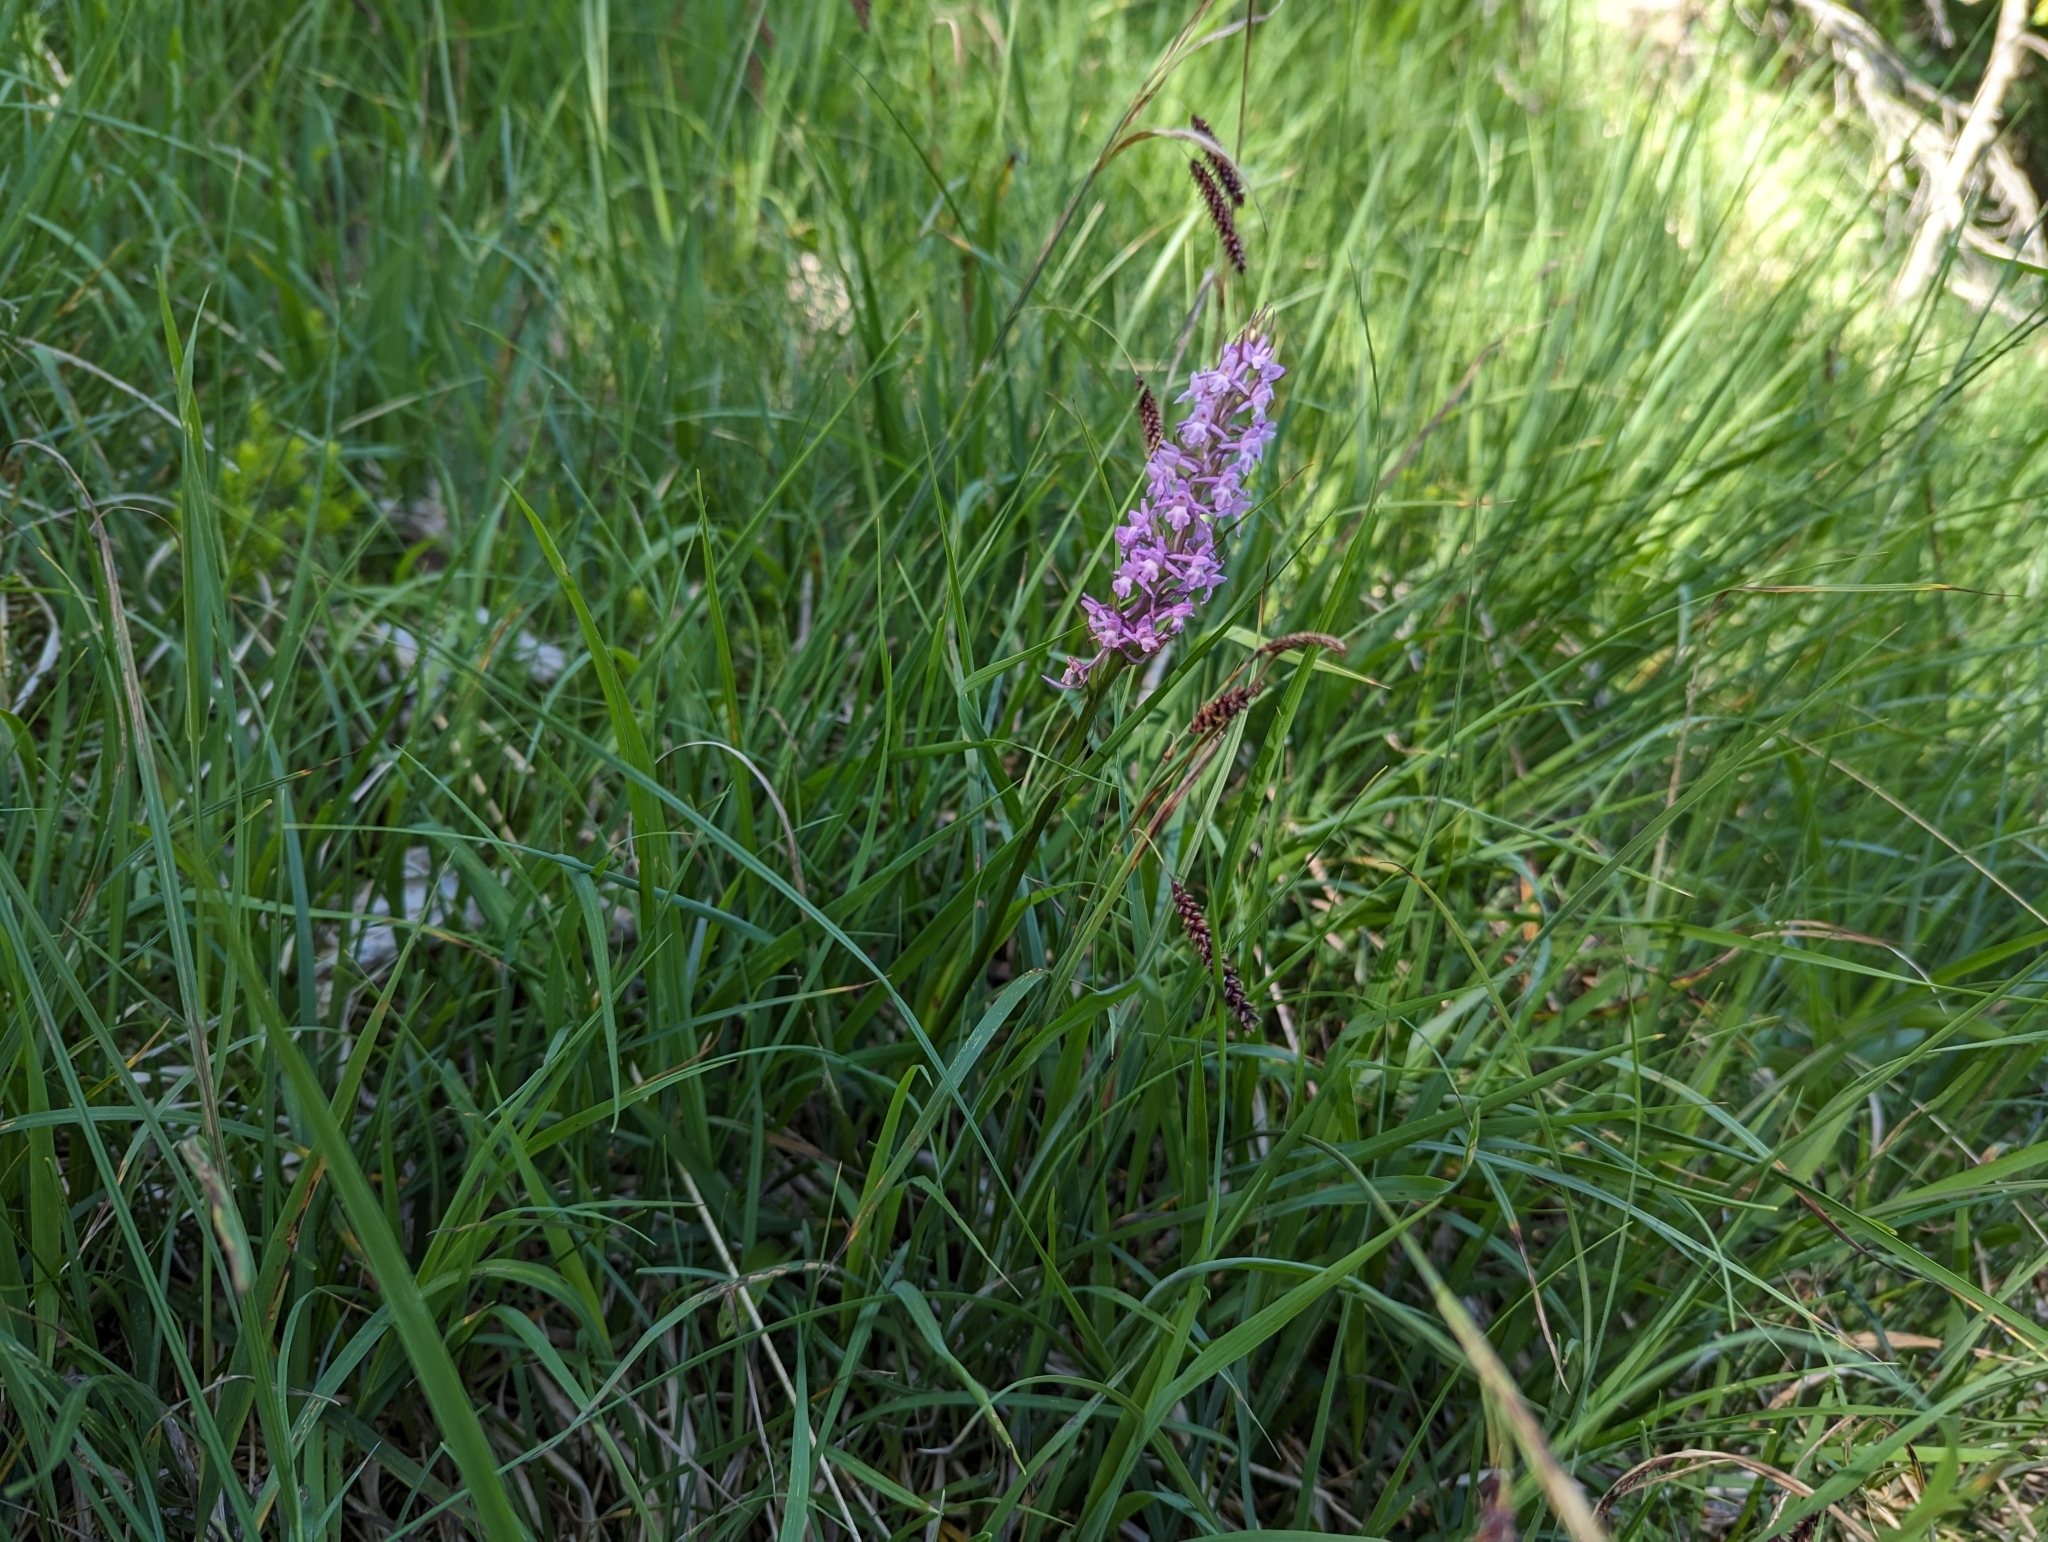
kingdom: Plantae
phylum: Tracheophyta
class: Liliopsida
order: Asparagales
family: Orchidaceae
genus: Gymnadenia
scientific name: Gymnadenia conopsea
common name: Fragrant orchid
